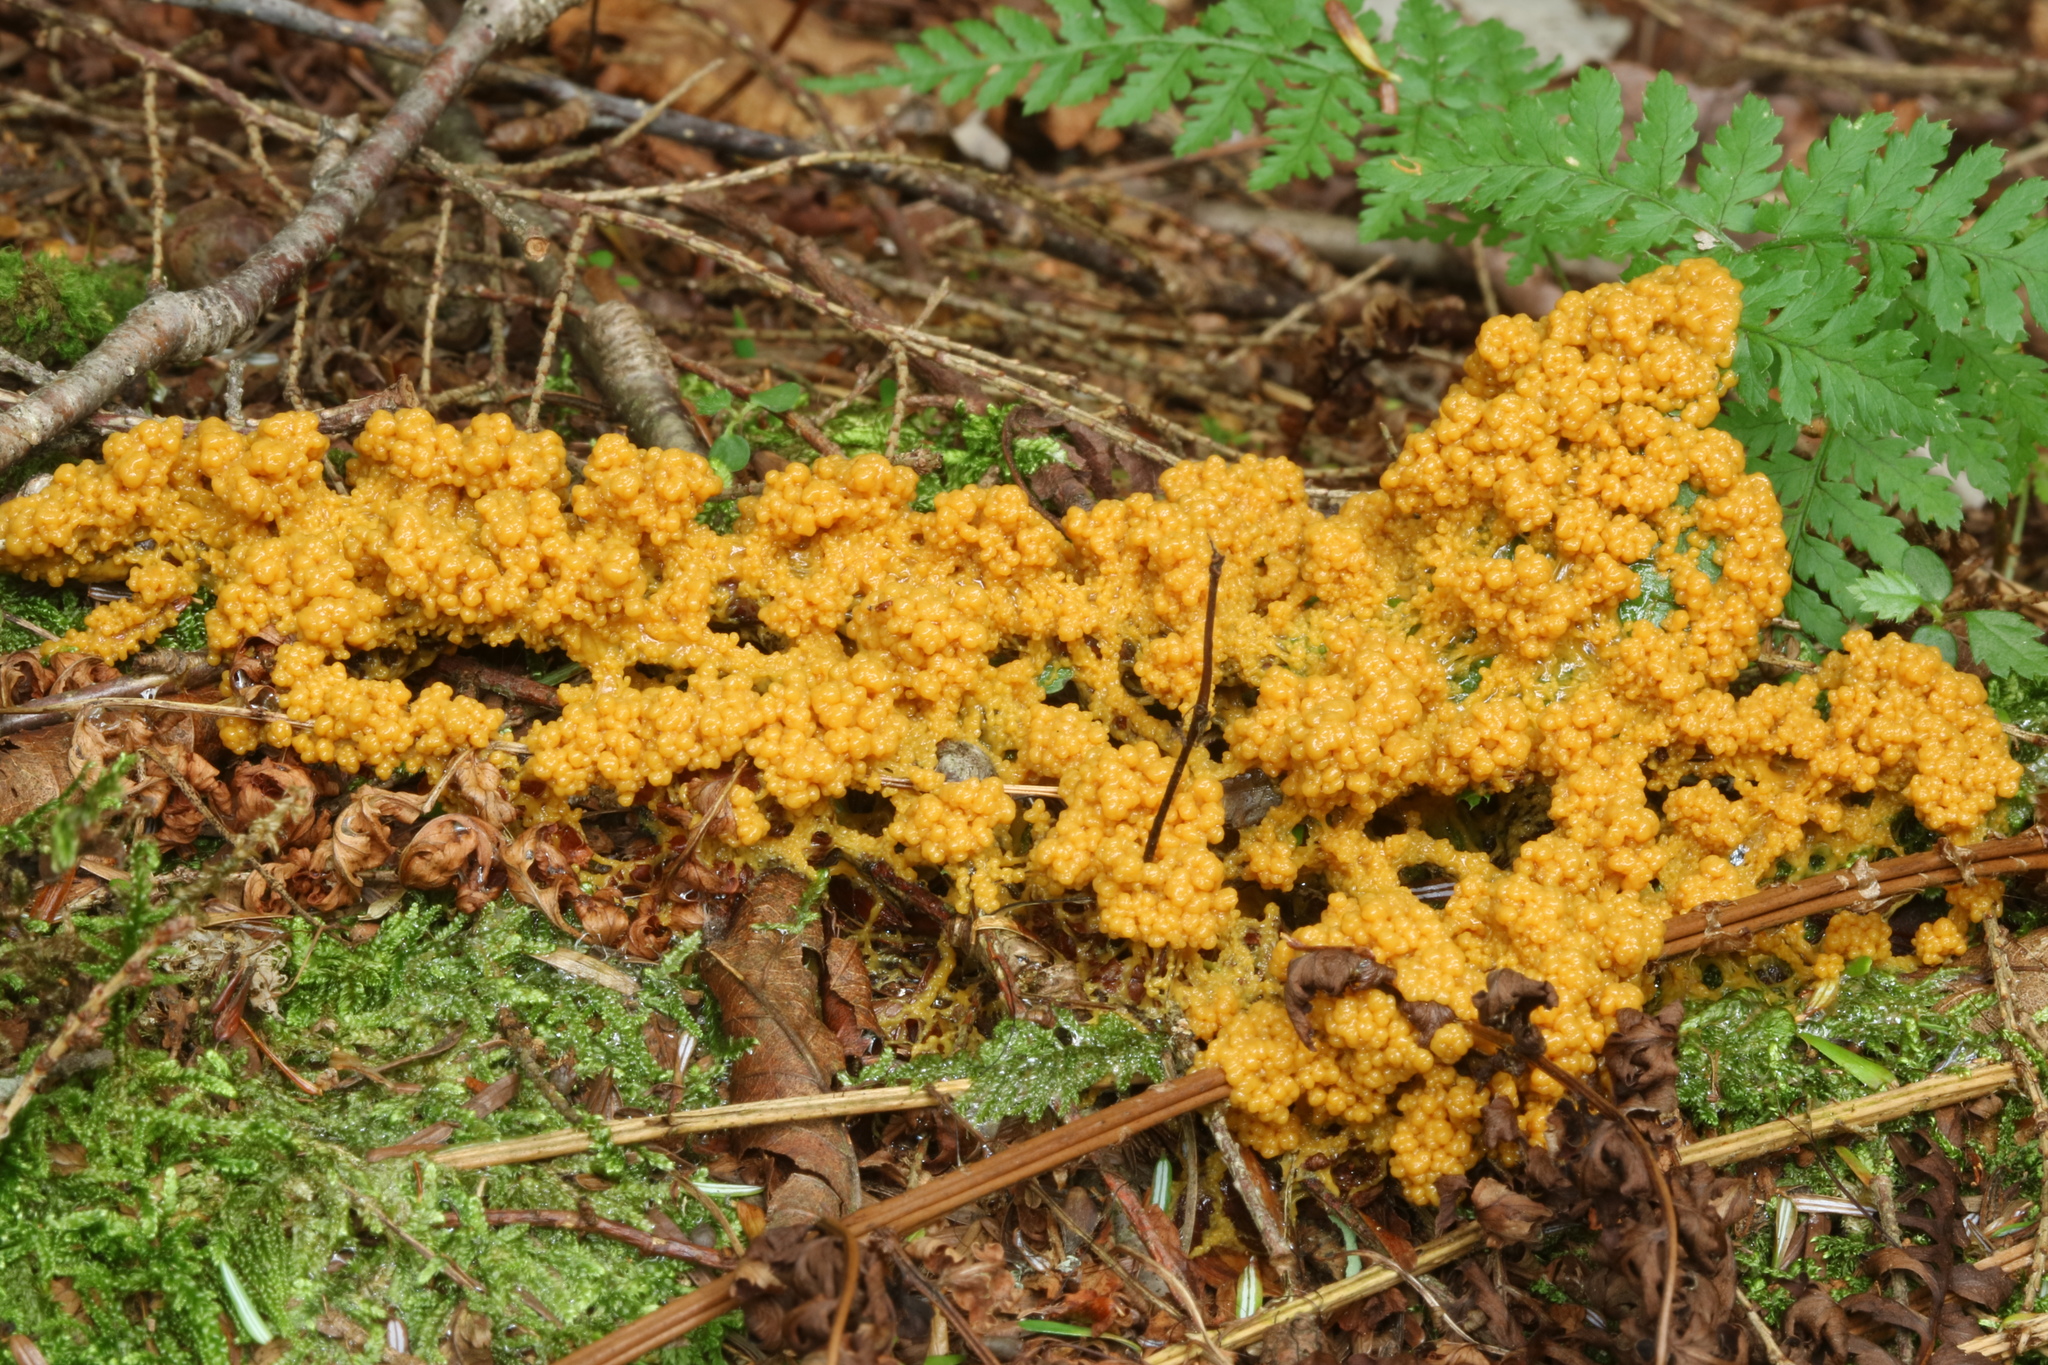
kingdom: Protozoa
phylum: Mycetozoa
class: Myxomycetes
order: Physarales
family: Physaraceae
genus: Physarum
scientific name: Physarum polycephalum
